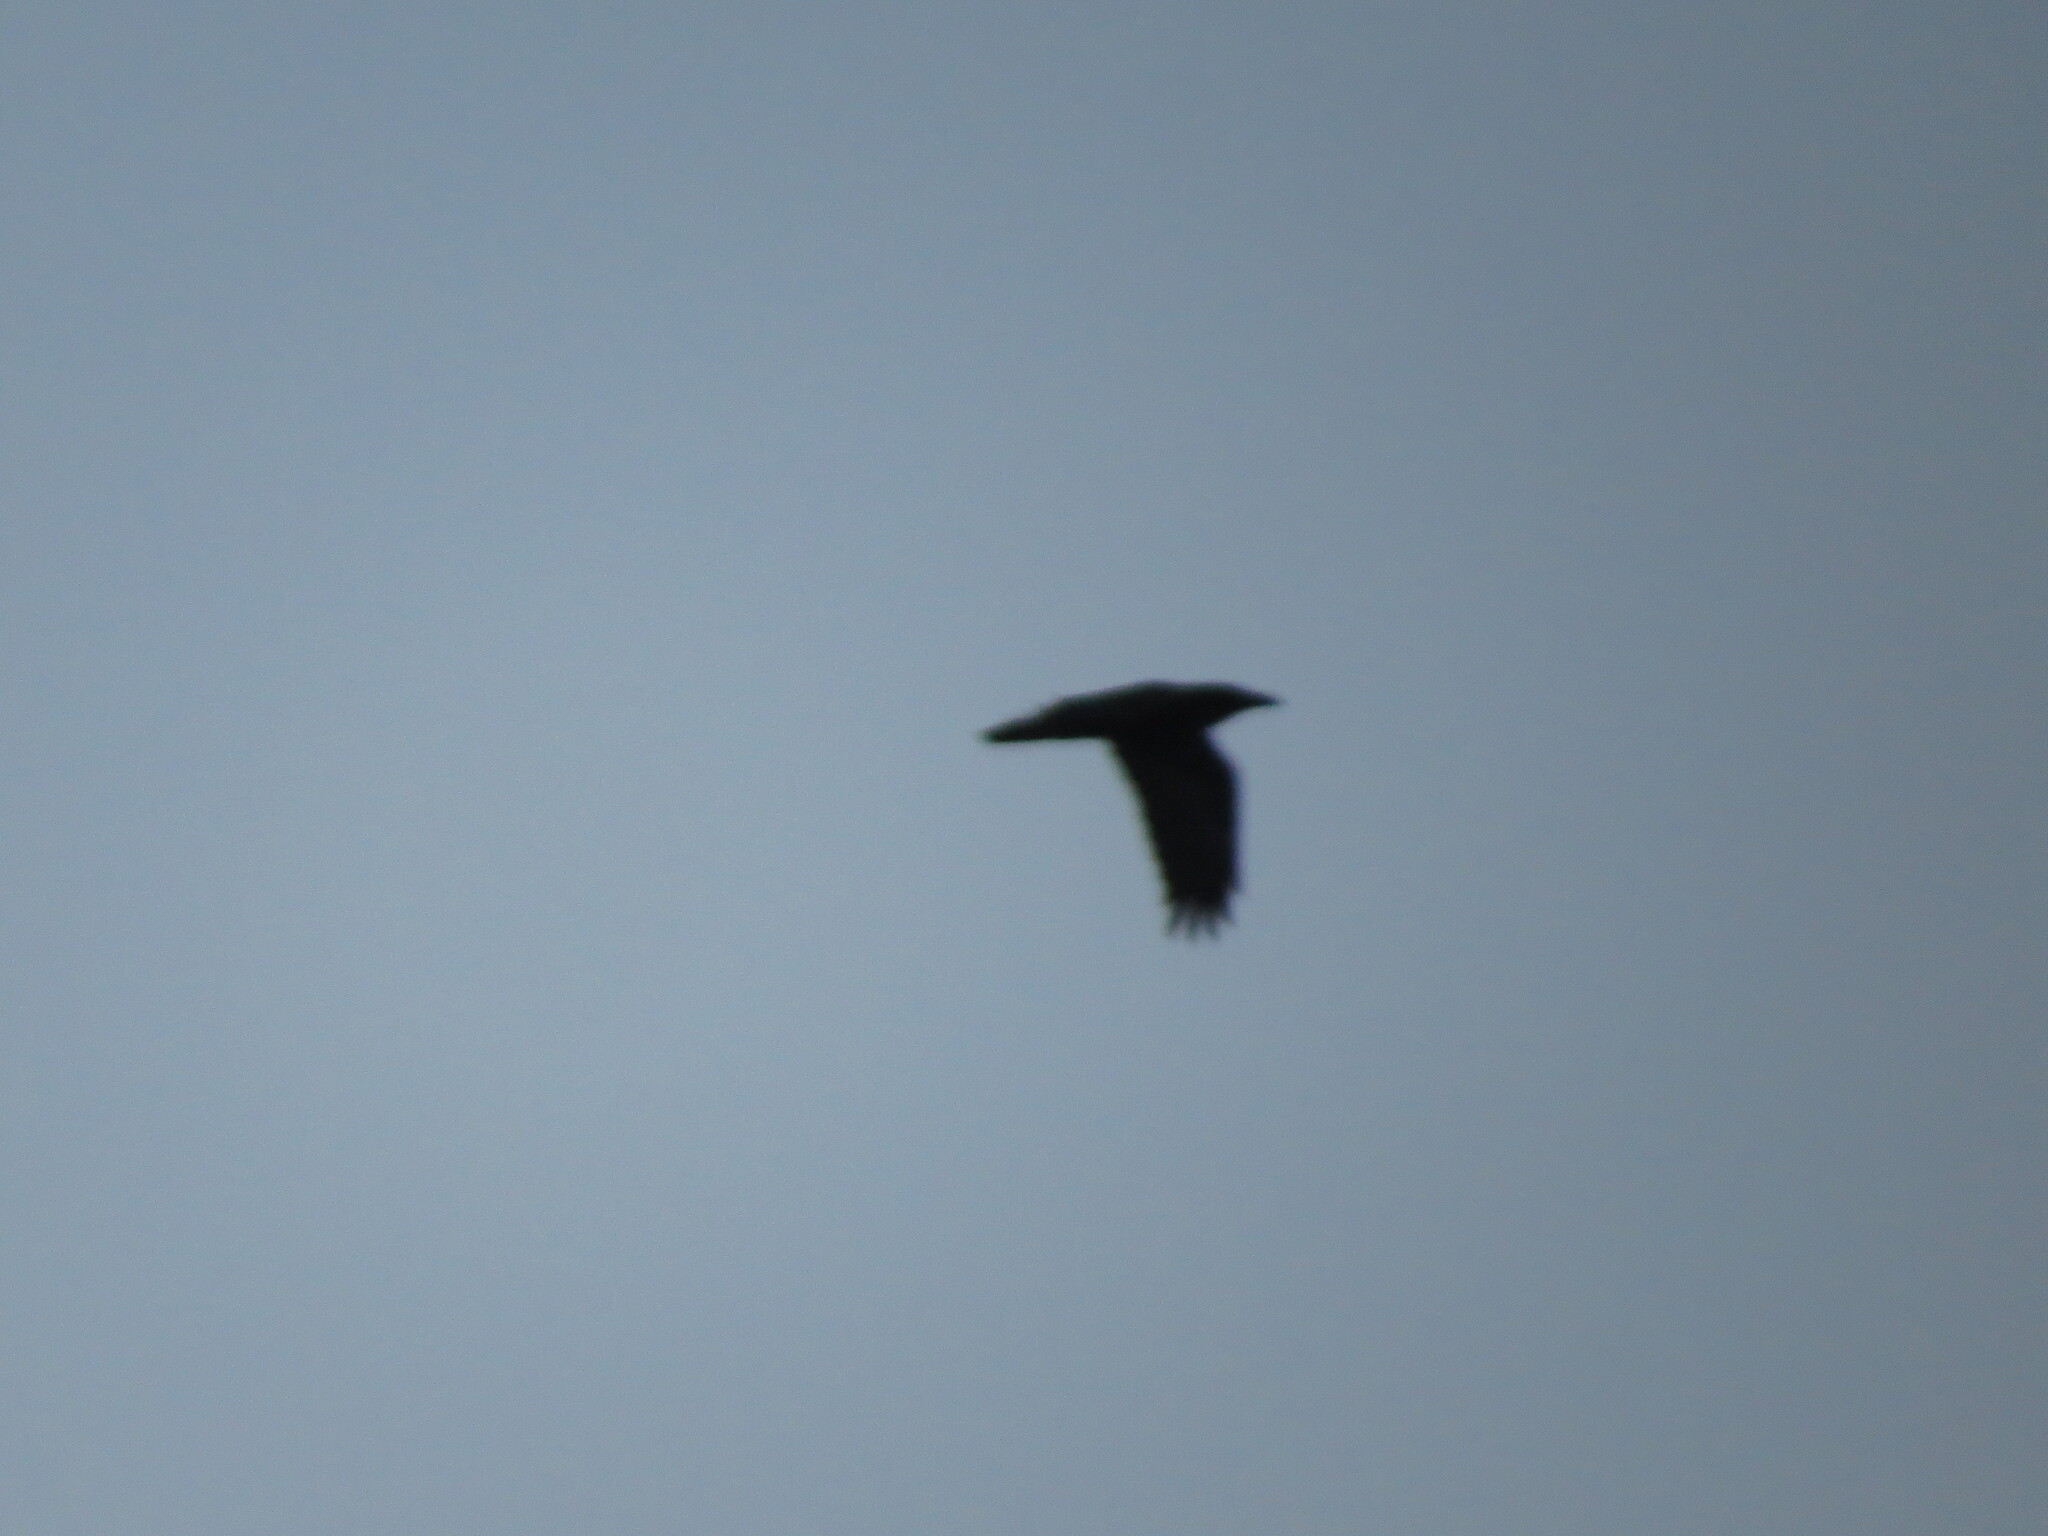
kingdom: Animalia
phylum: Chordata
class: Aves
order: Passeriformes
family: Corvidae
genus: Corvus
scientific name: Corvus corax
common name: Common raven
